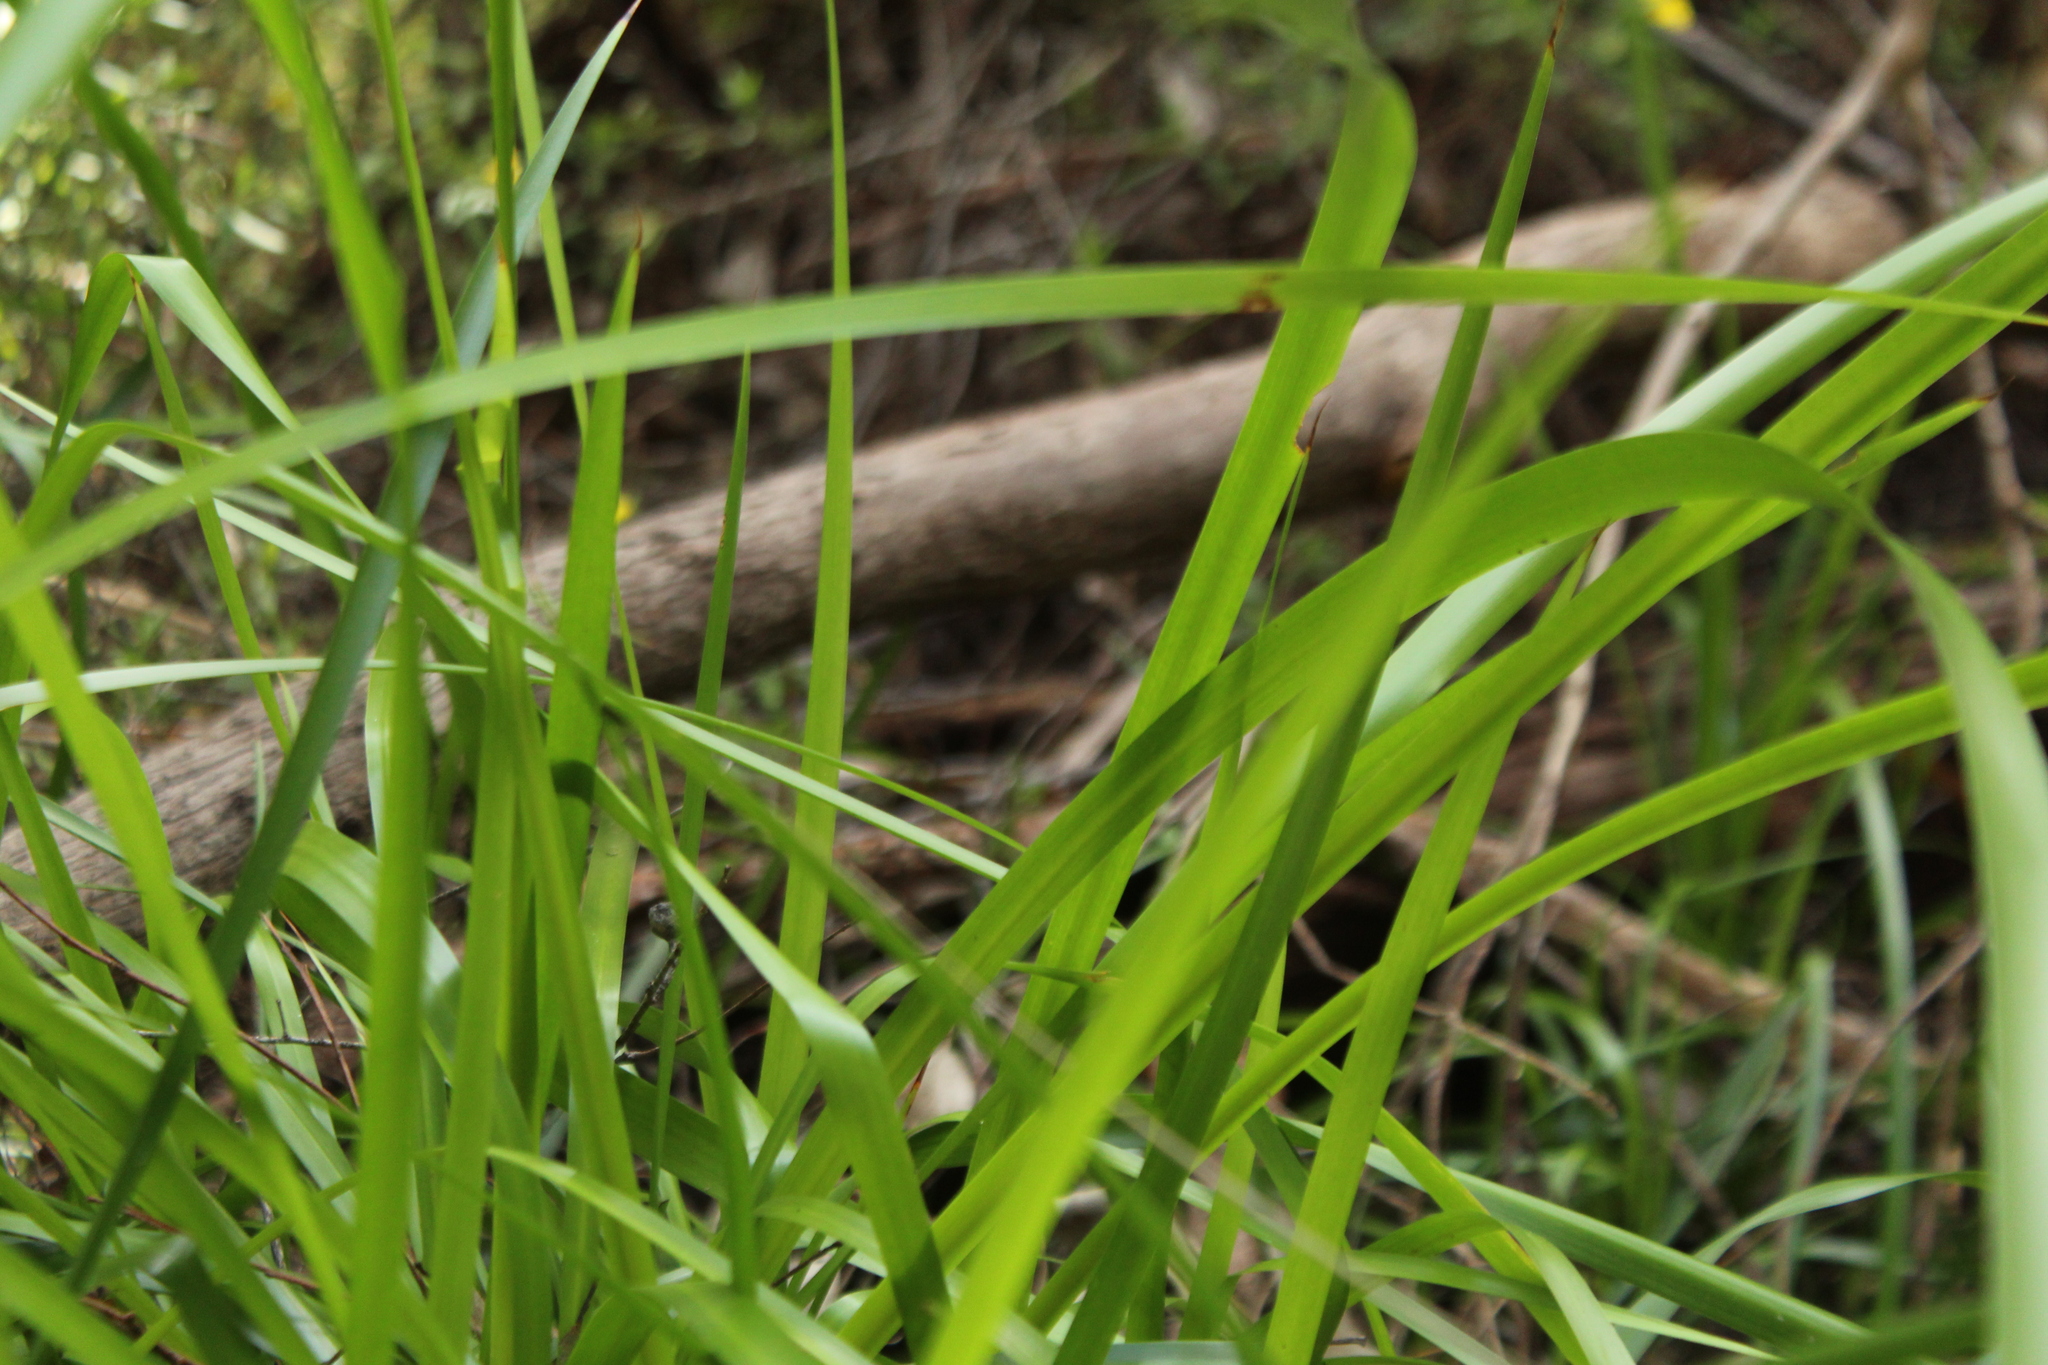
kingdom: Plantae
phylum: Tracheophyta
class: Liliopsida
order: Poales
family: Cyperaceae
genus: Lepidosperma
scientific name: Lepidosperma effusum
